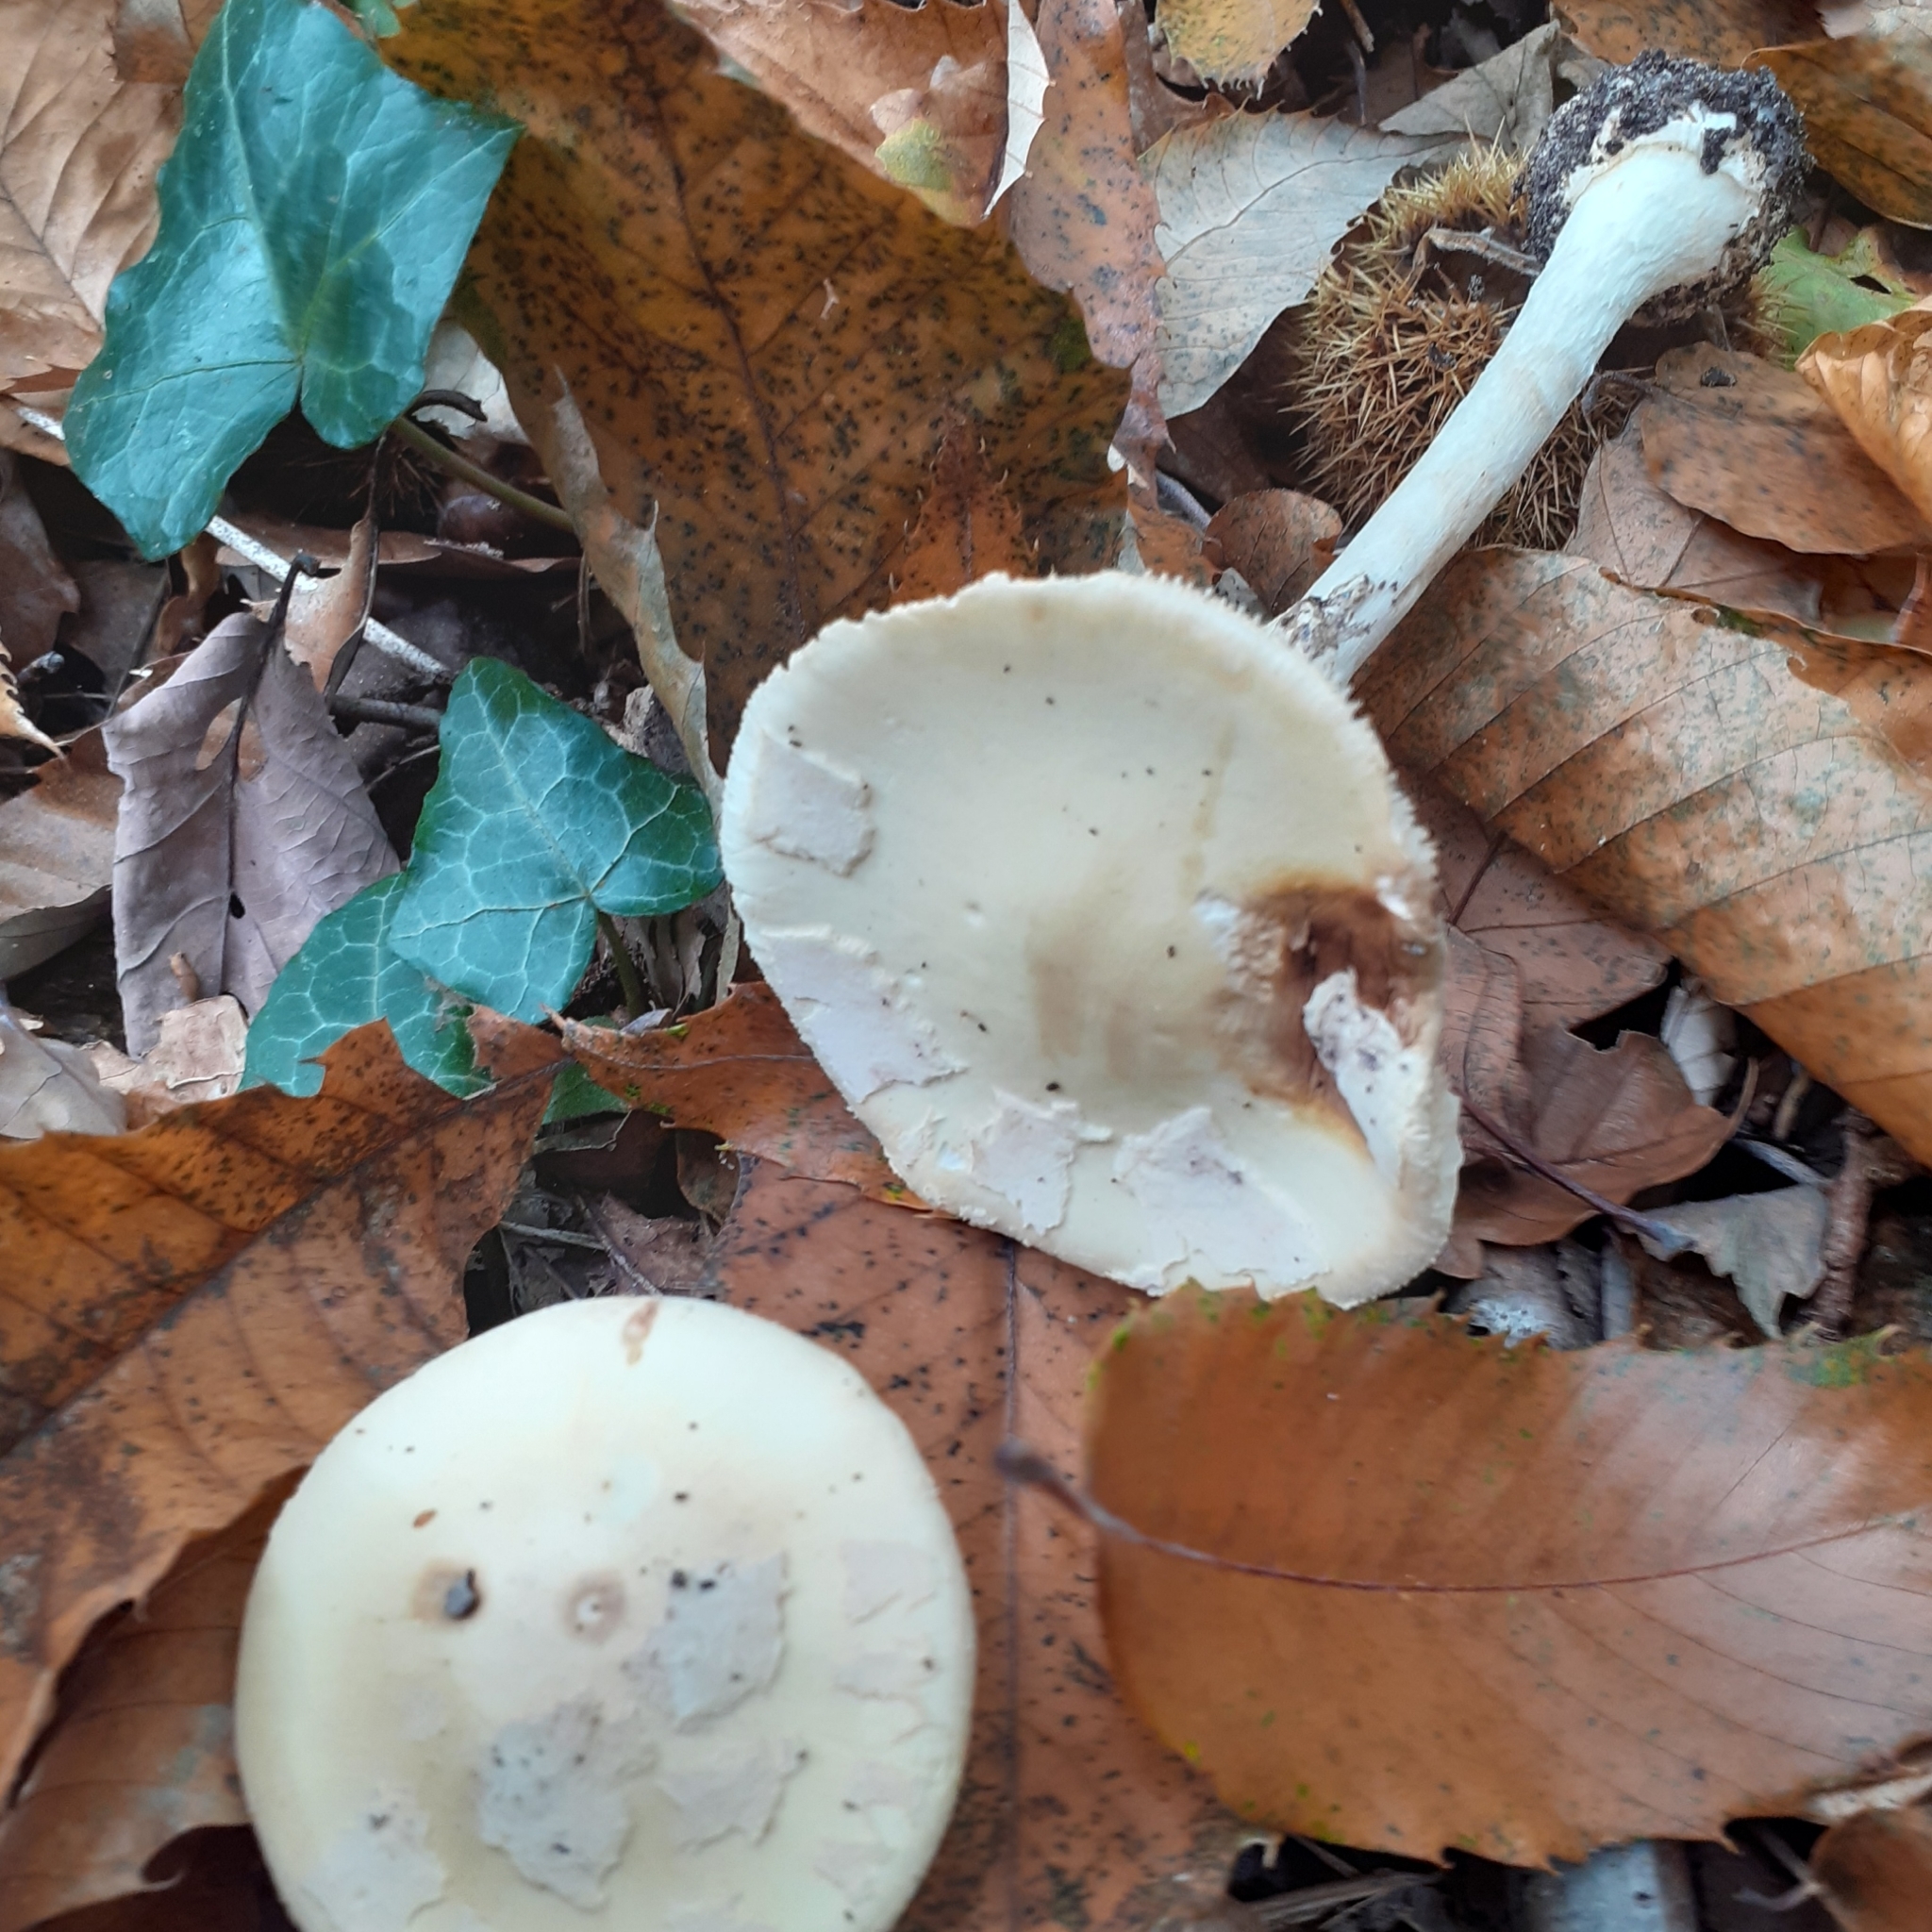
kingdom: Fungi
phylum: Basidiomycota
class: Agaricomycetes
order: Agaricales
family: Amanitaceae
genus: Amanita
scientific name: Amanita citrina
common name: False death-cap
